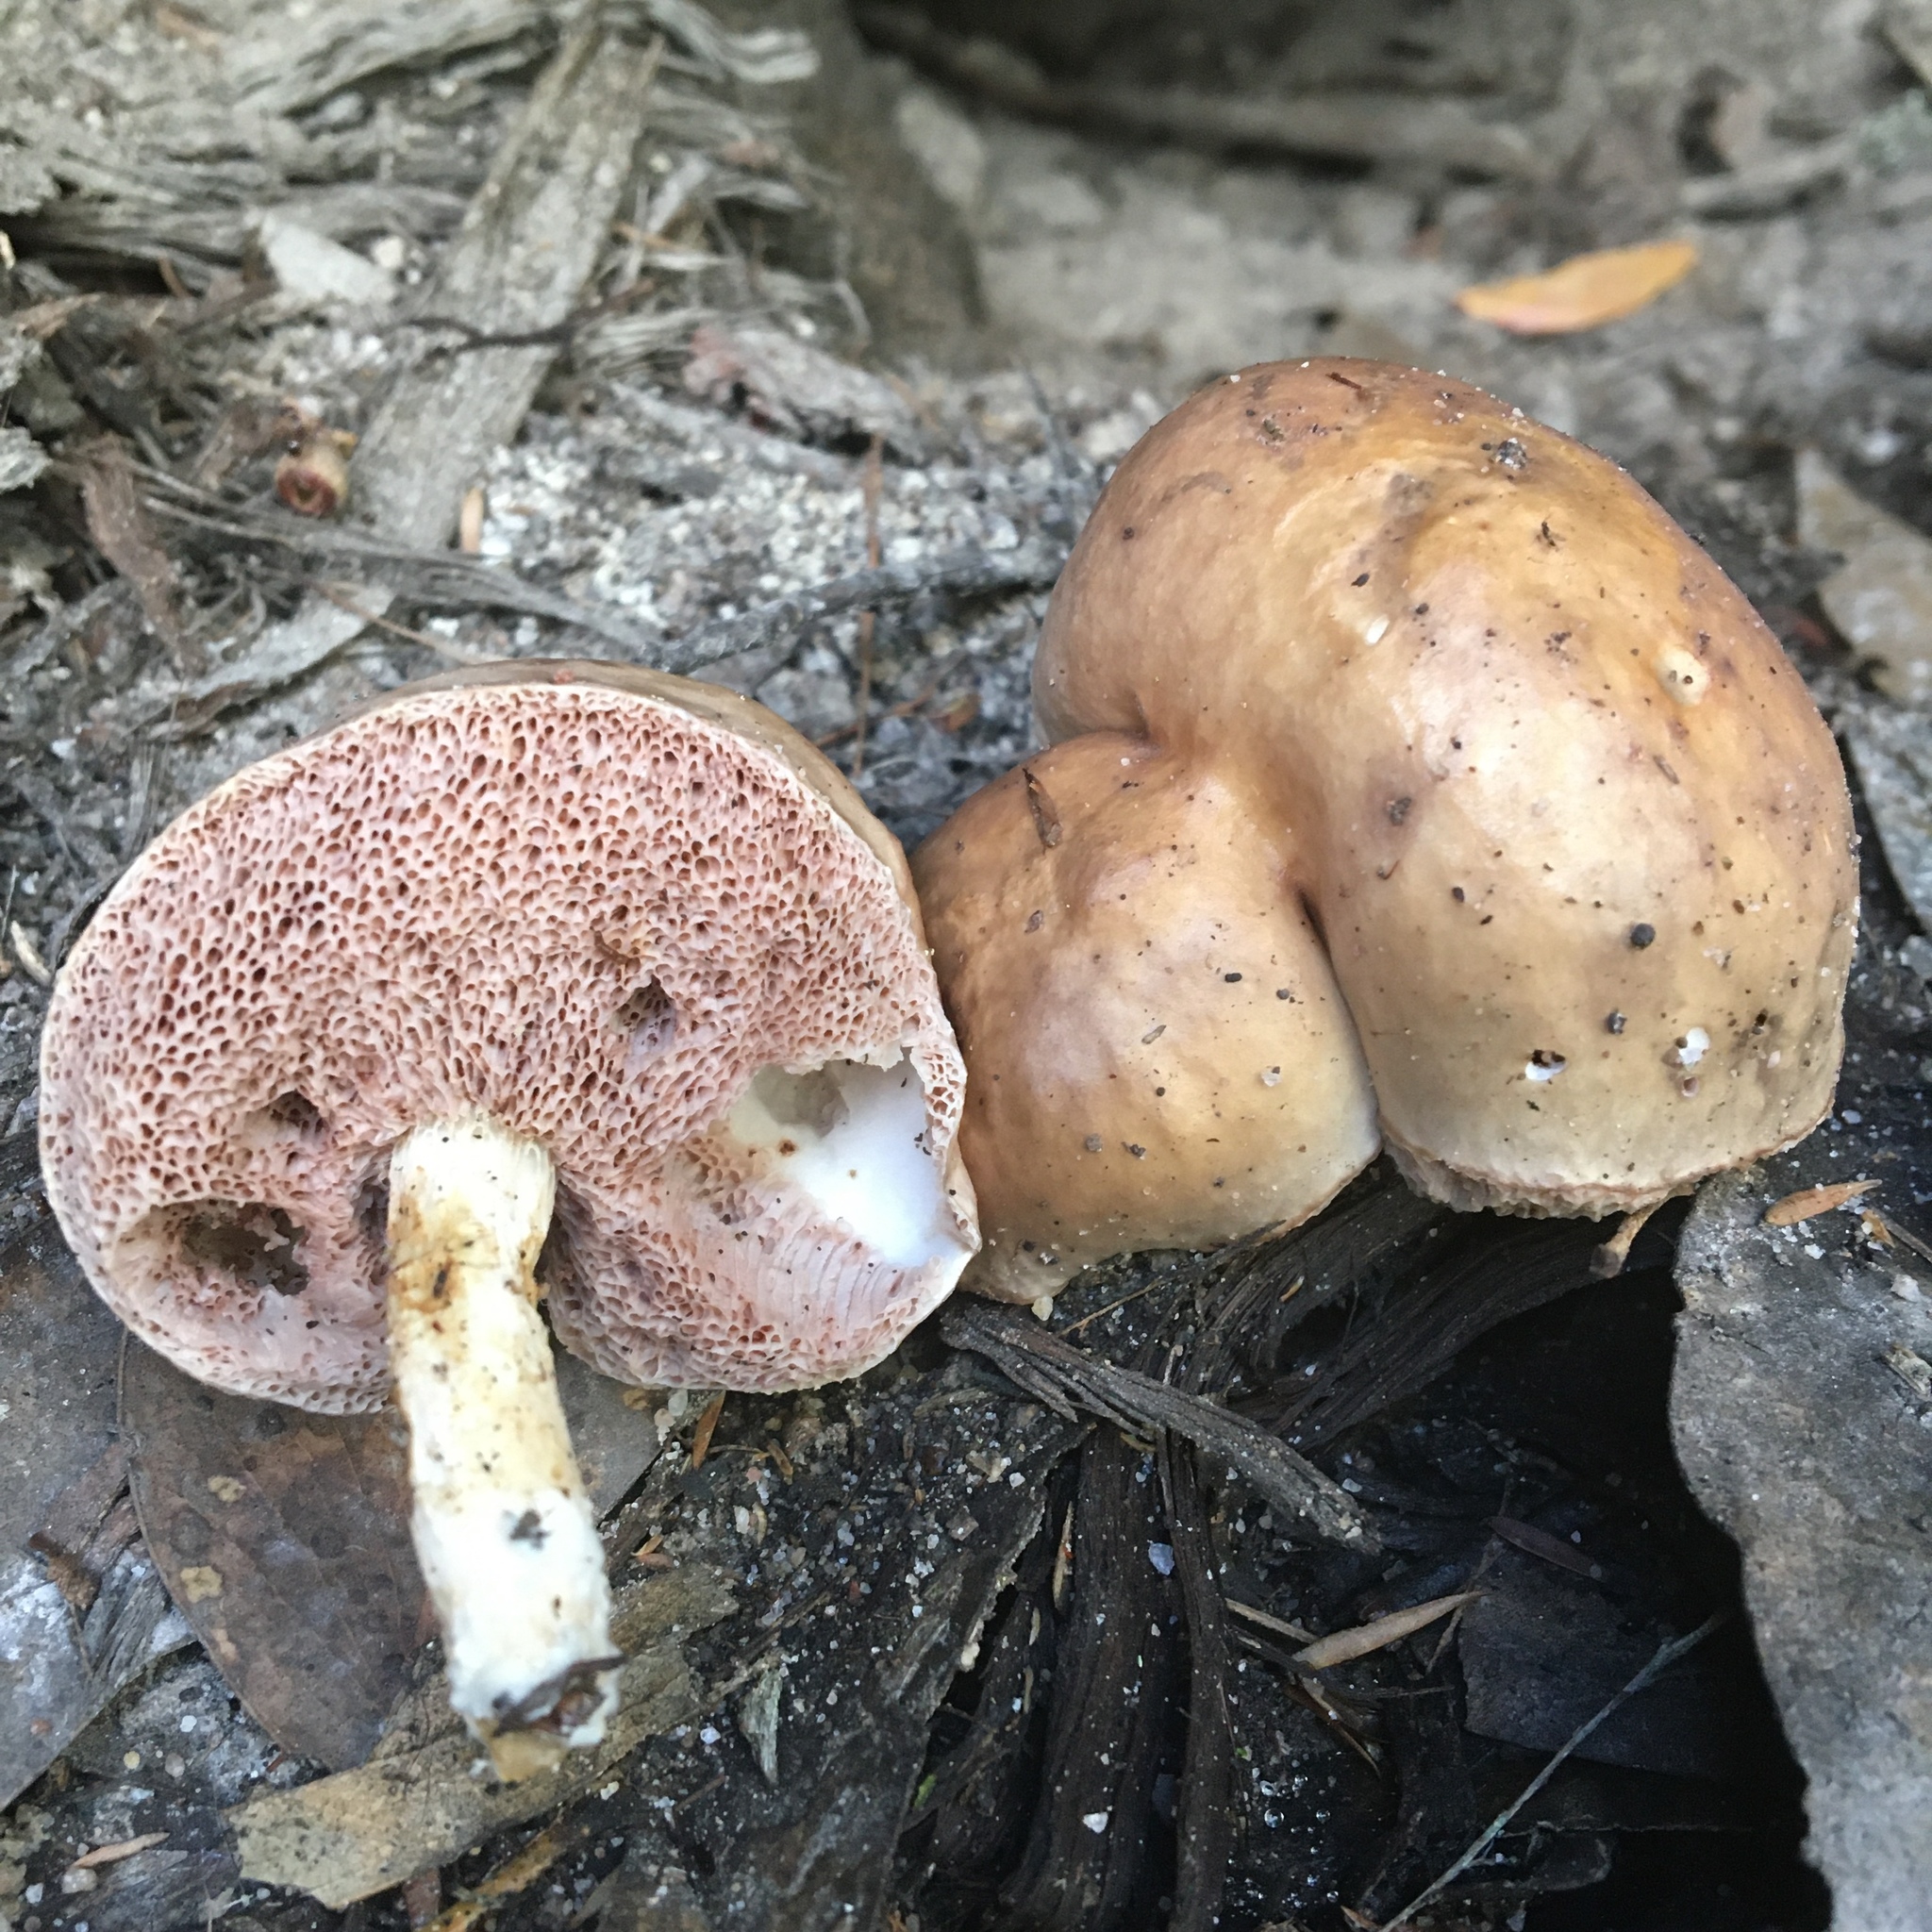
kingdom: Fungi
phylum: Basidiomycota
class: Agaricomycetes
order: Boletales
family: Boletaceae
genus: Fistulinella
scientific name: Fistulinella mollis
